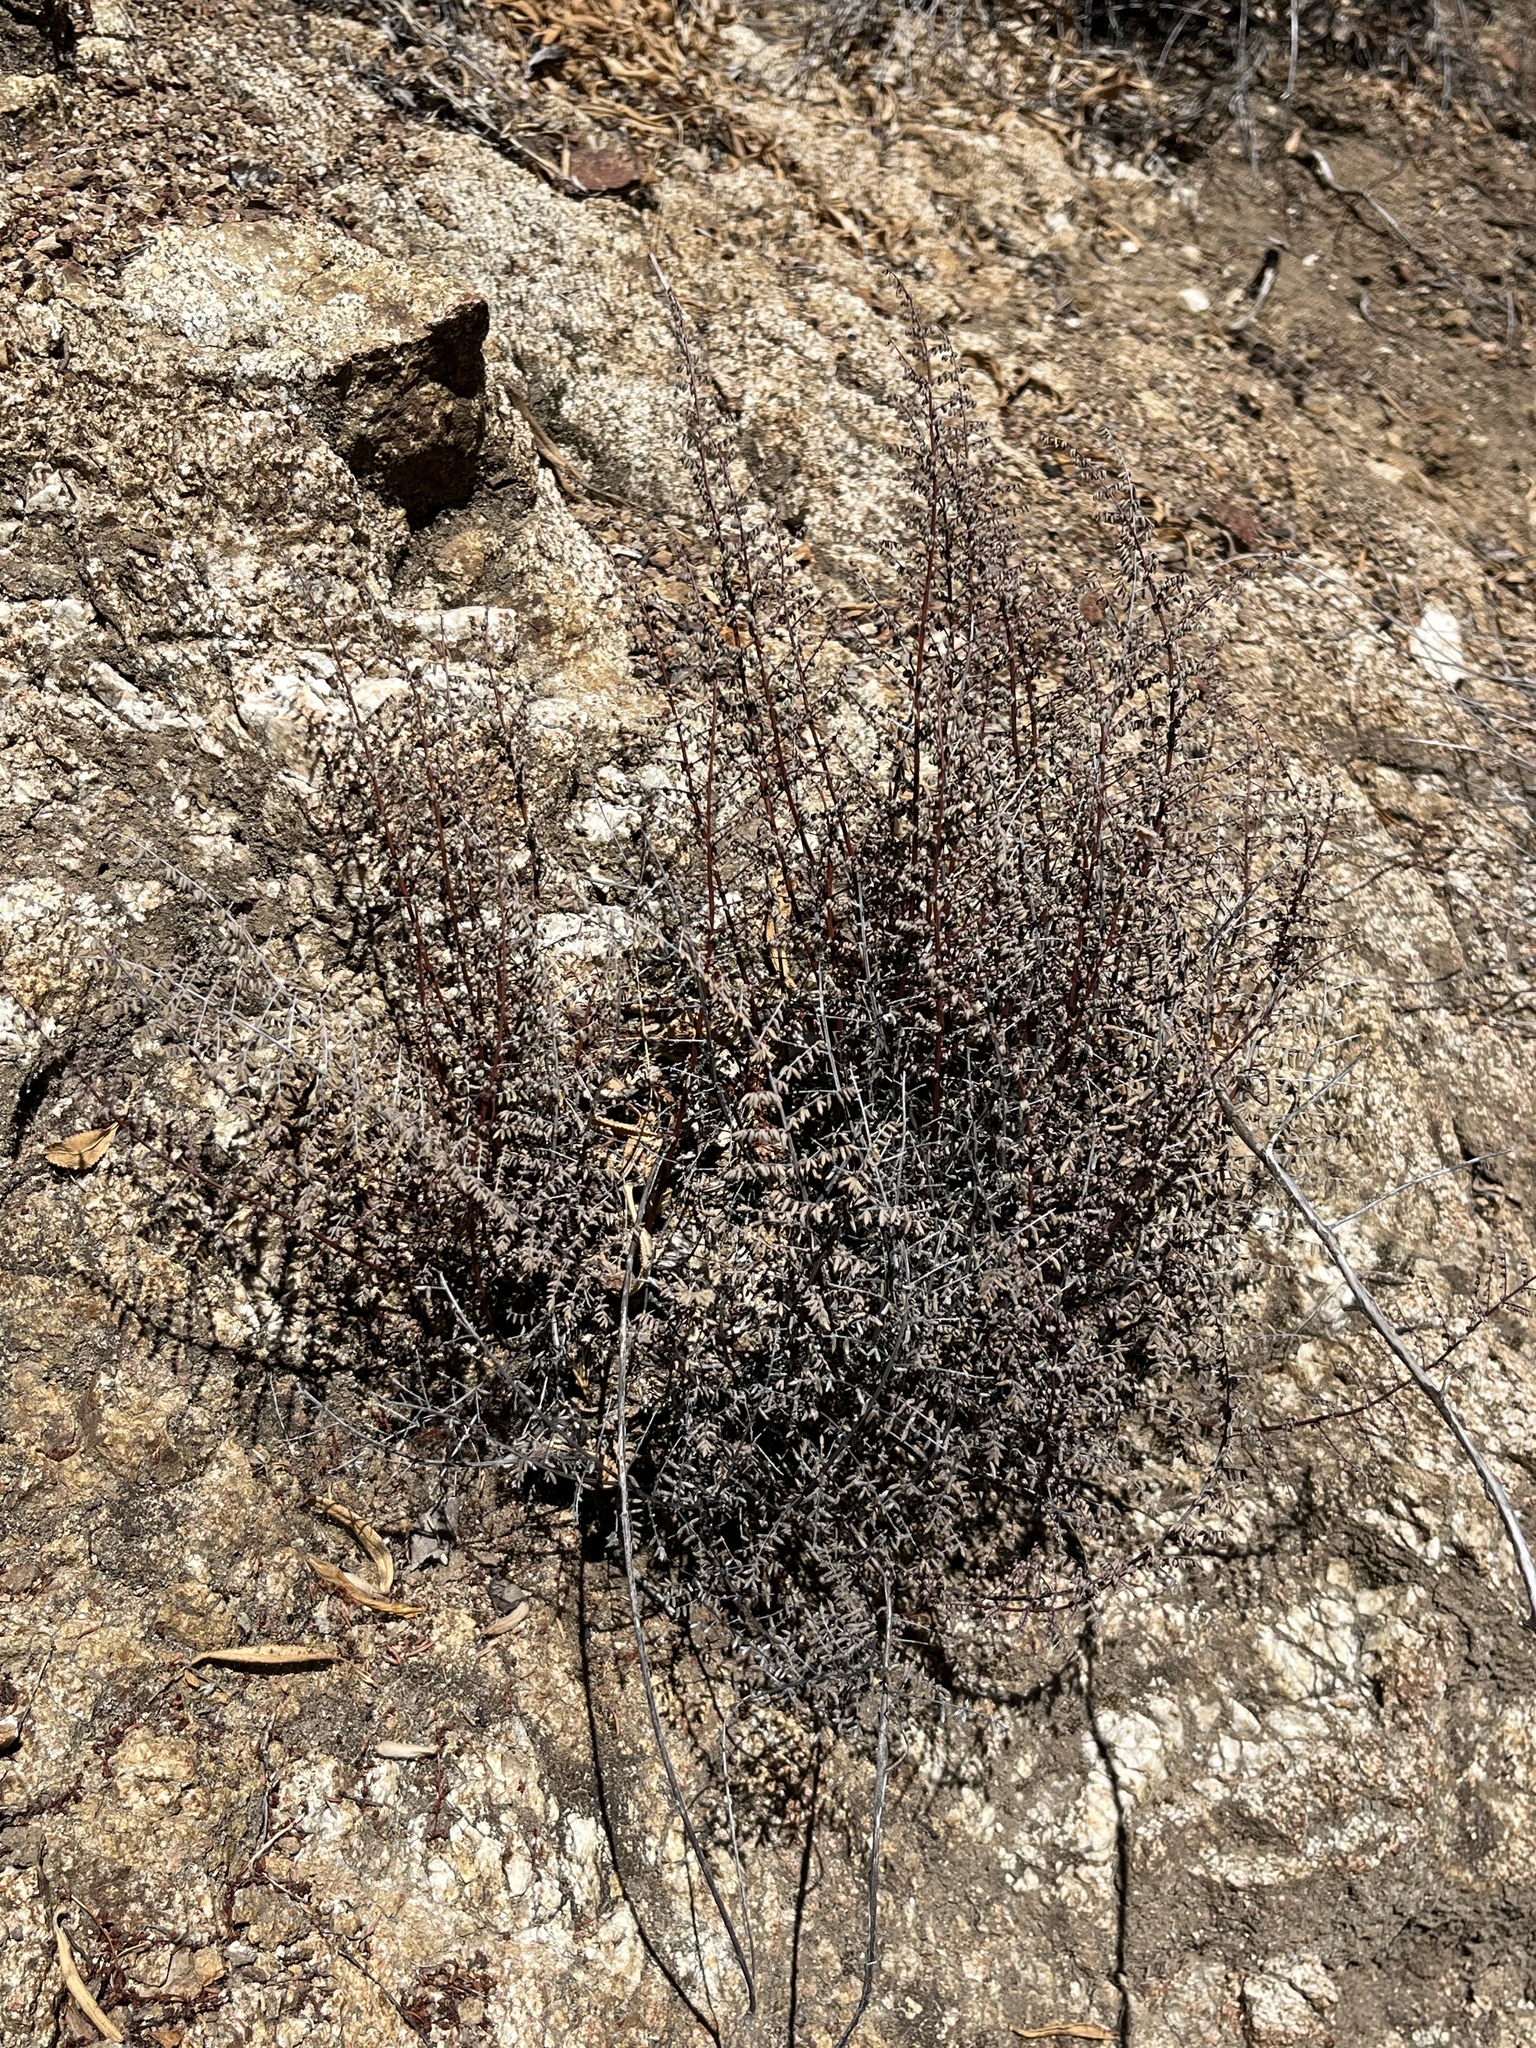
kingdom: Plantae
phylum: Tracheophyta
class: Polypodiopsida
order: Polypodiales
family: Pteridaceae
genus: Pellaea
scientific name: Pellaea mucronata
